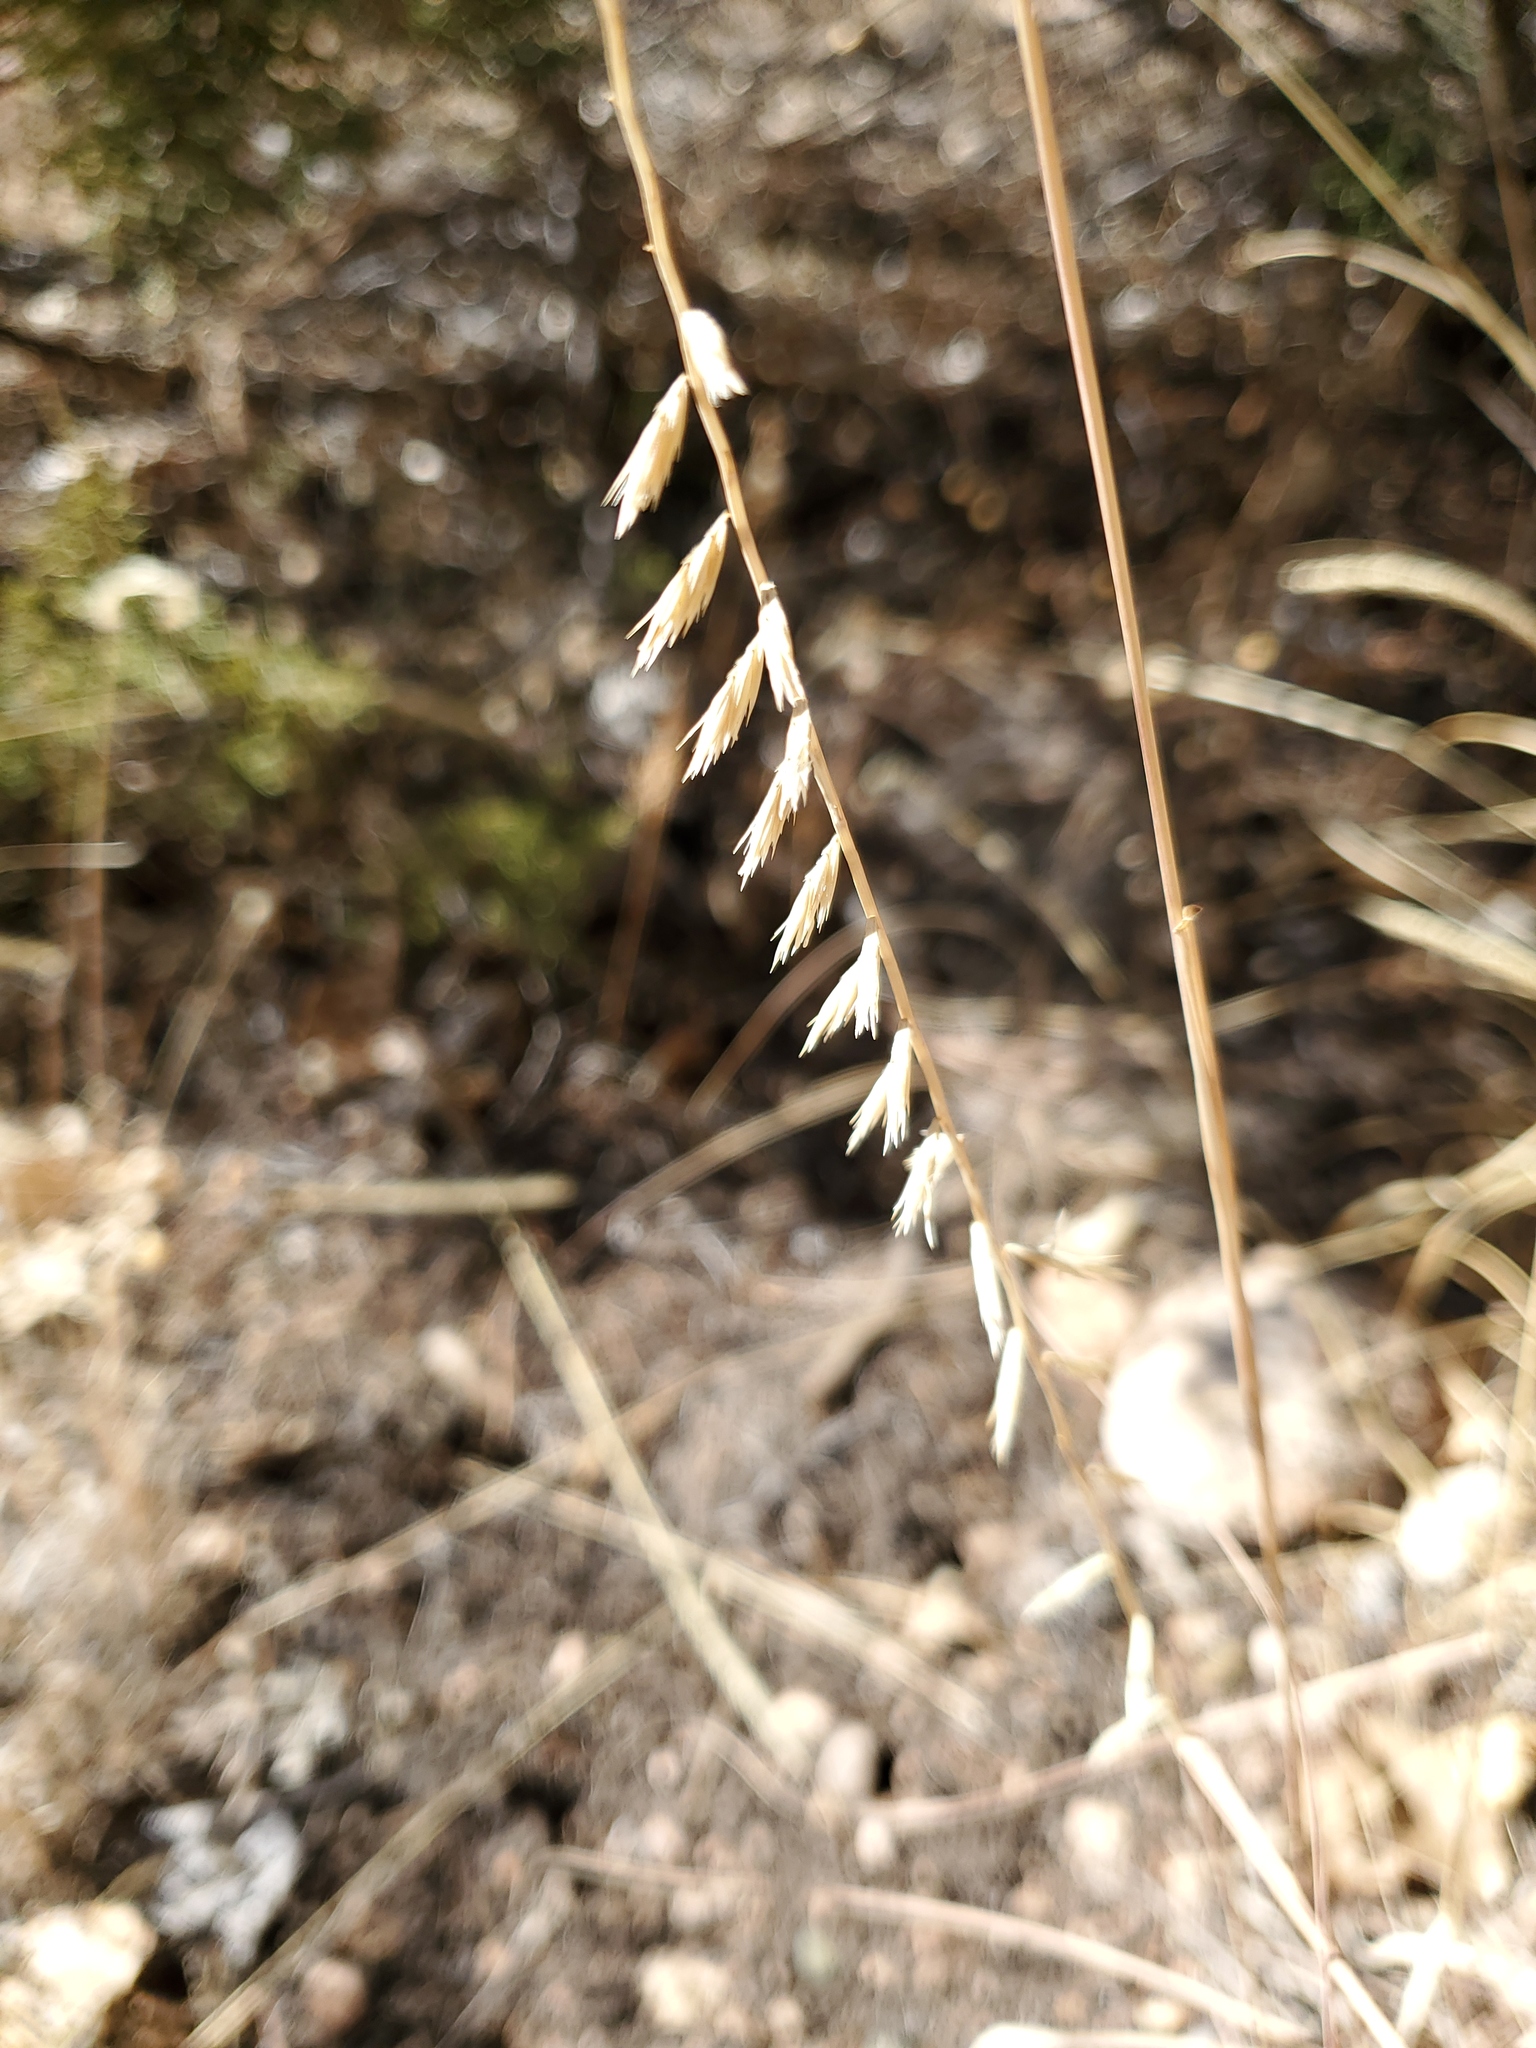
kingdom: Plantae
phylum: Tracheophyta
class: Liliopsida
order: Poales
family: Poaceae
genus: Bouteloua
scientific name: Bouteloua curtipendula
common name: Side-oats grama
